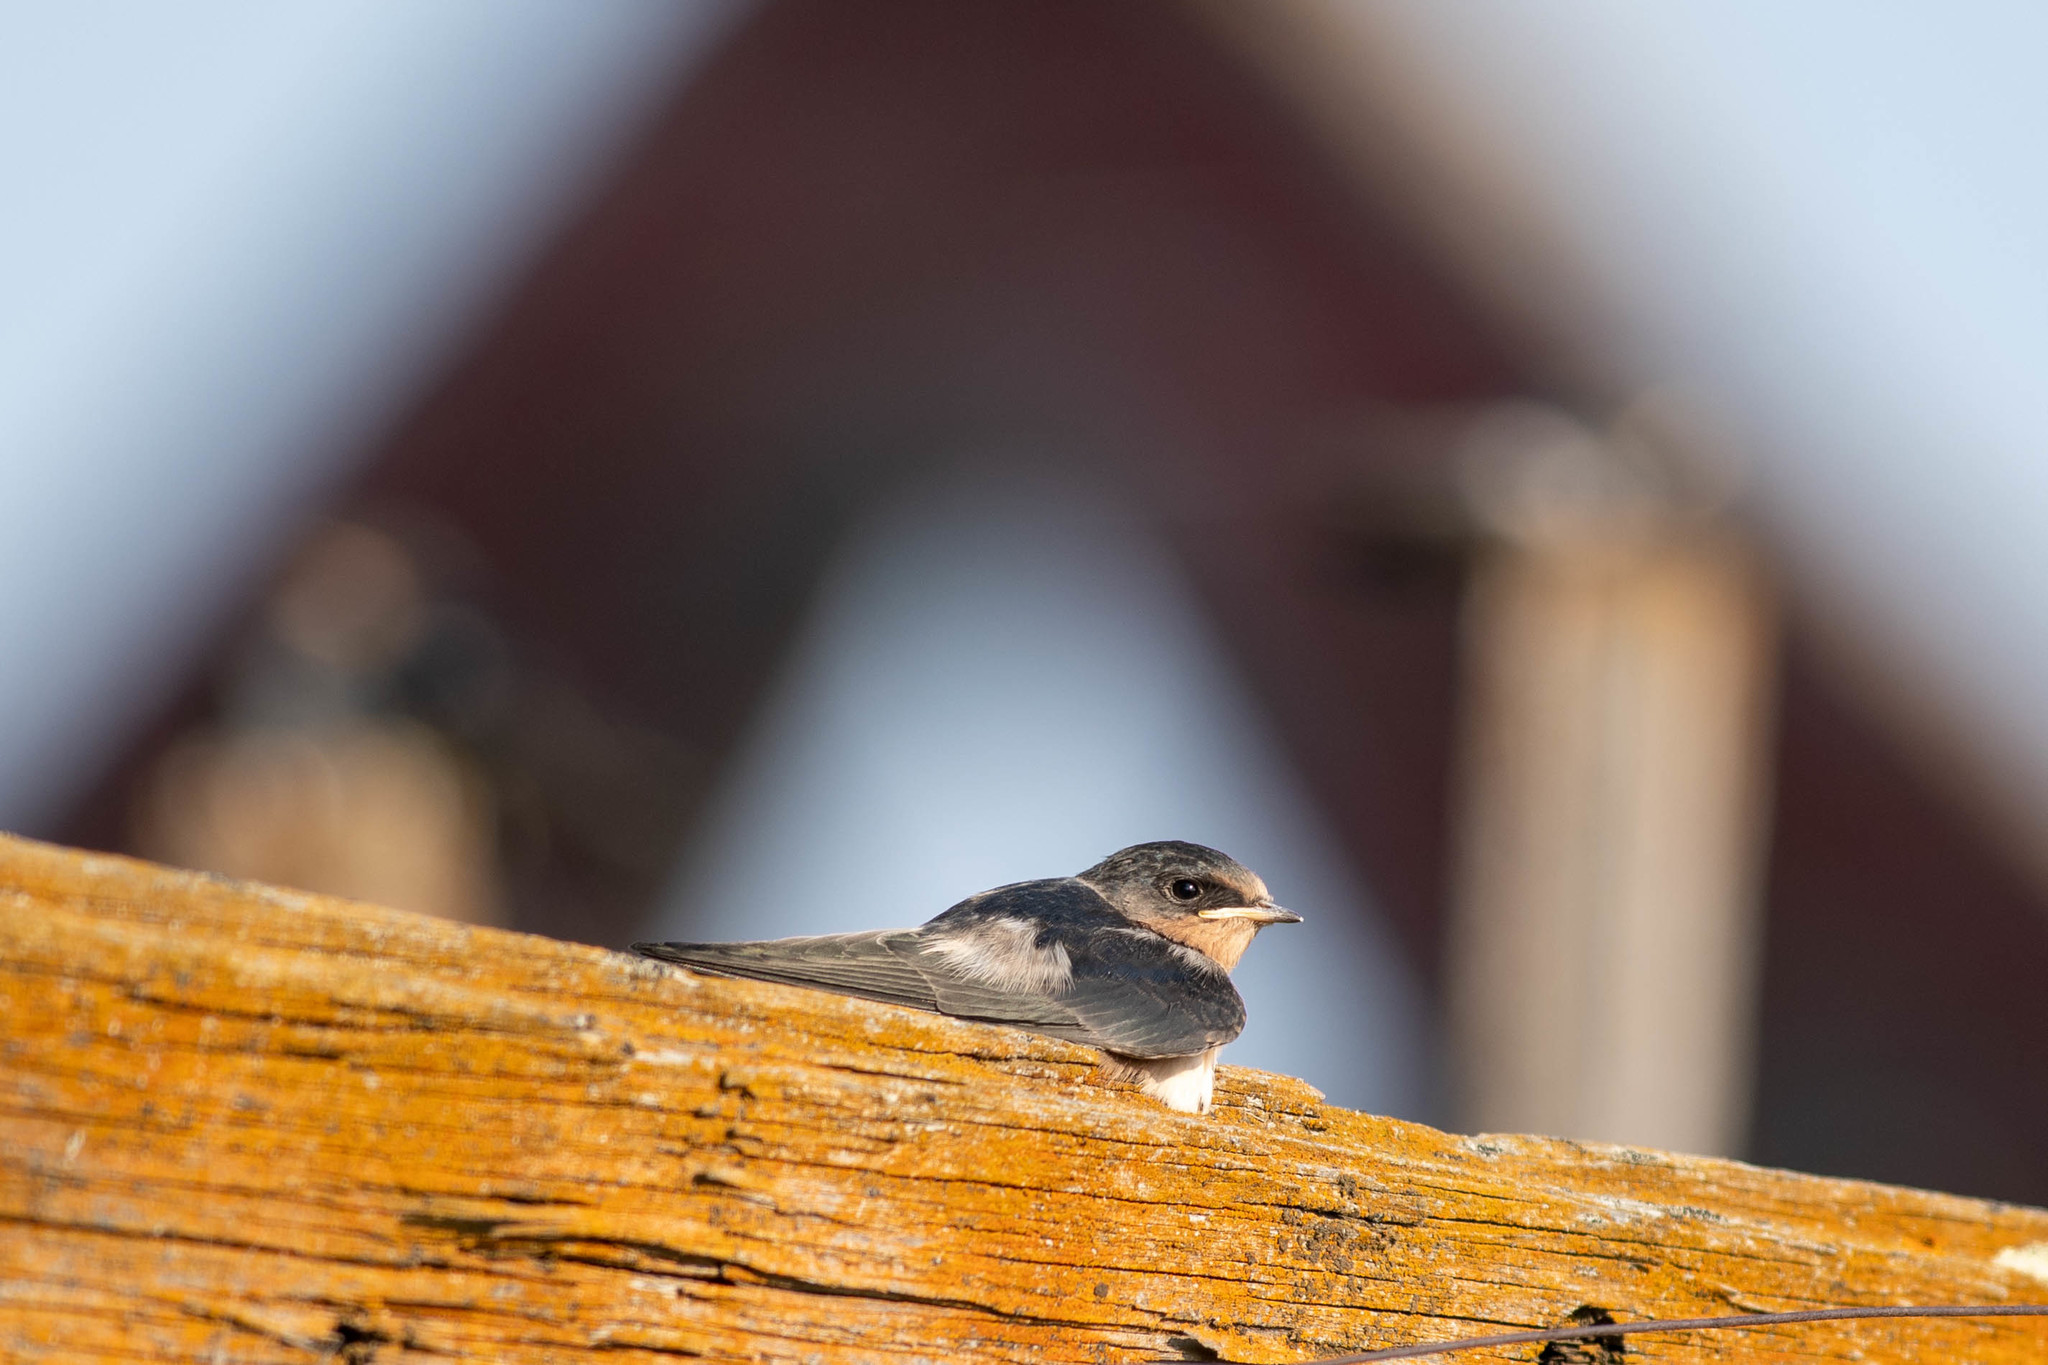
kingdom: Animalia
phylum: Chordata
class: Aves
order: Passeriformes
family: Hirundinidae
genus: Hirundo
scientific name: Hirundo rustica
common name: Barn swallow
